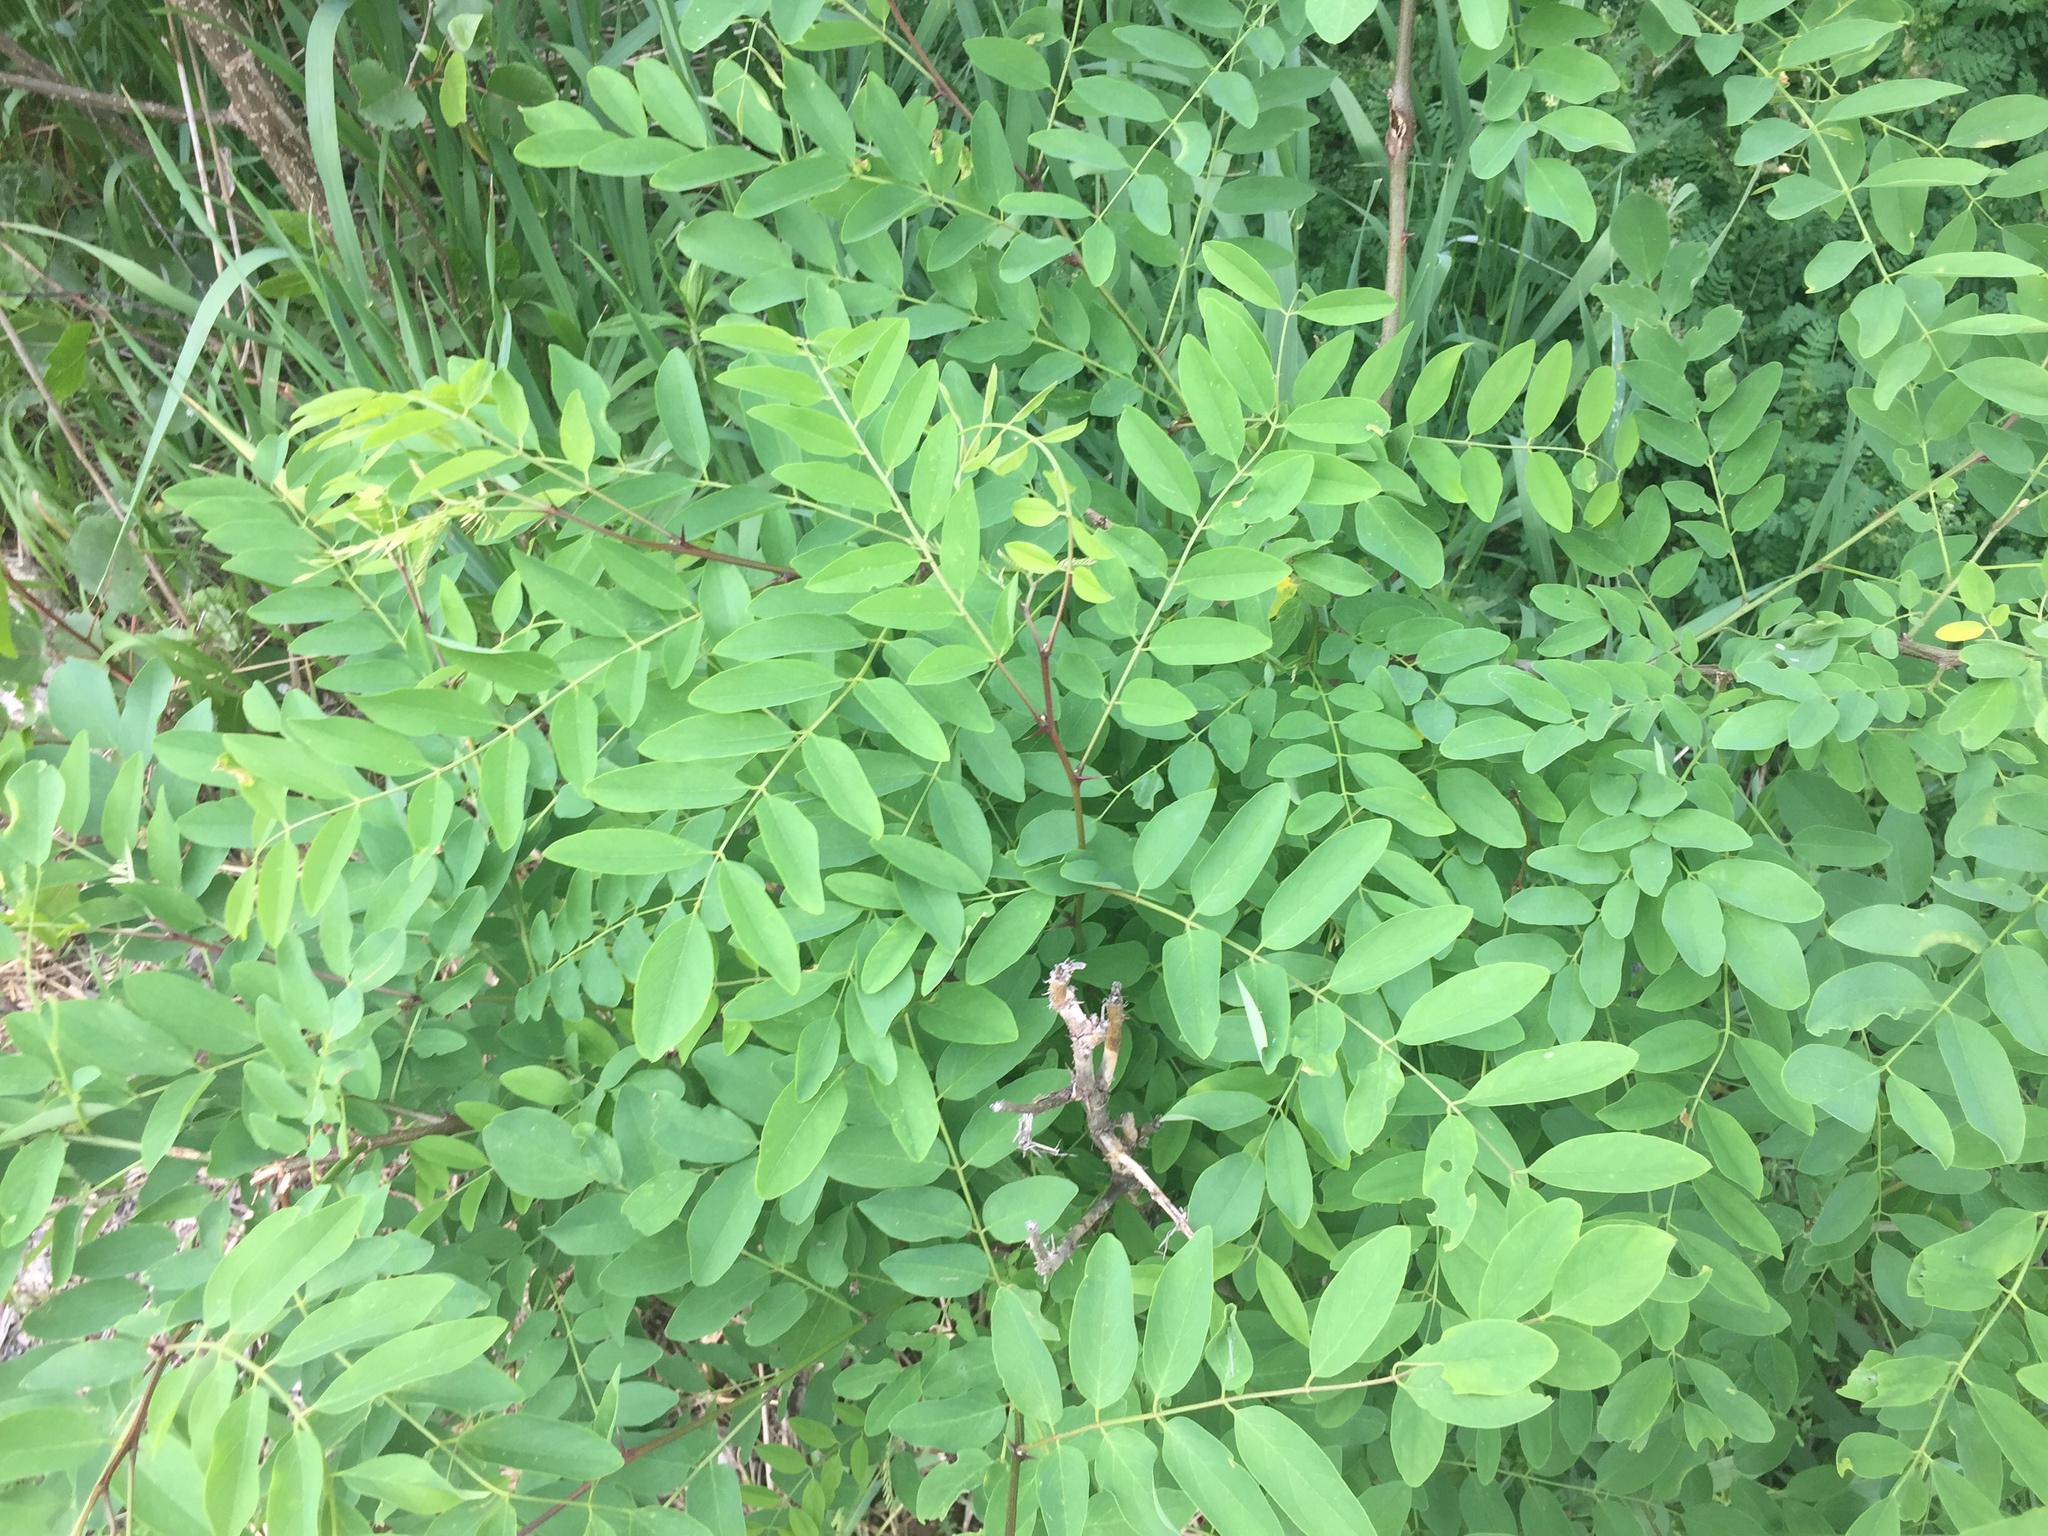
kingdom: Plantae
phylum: Tracheophyta
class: Magnoliopsida
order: Fabales
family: Fabaceae
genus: Robinia
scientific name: Robinia pseudoacacia
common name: Black locust
